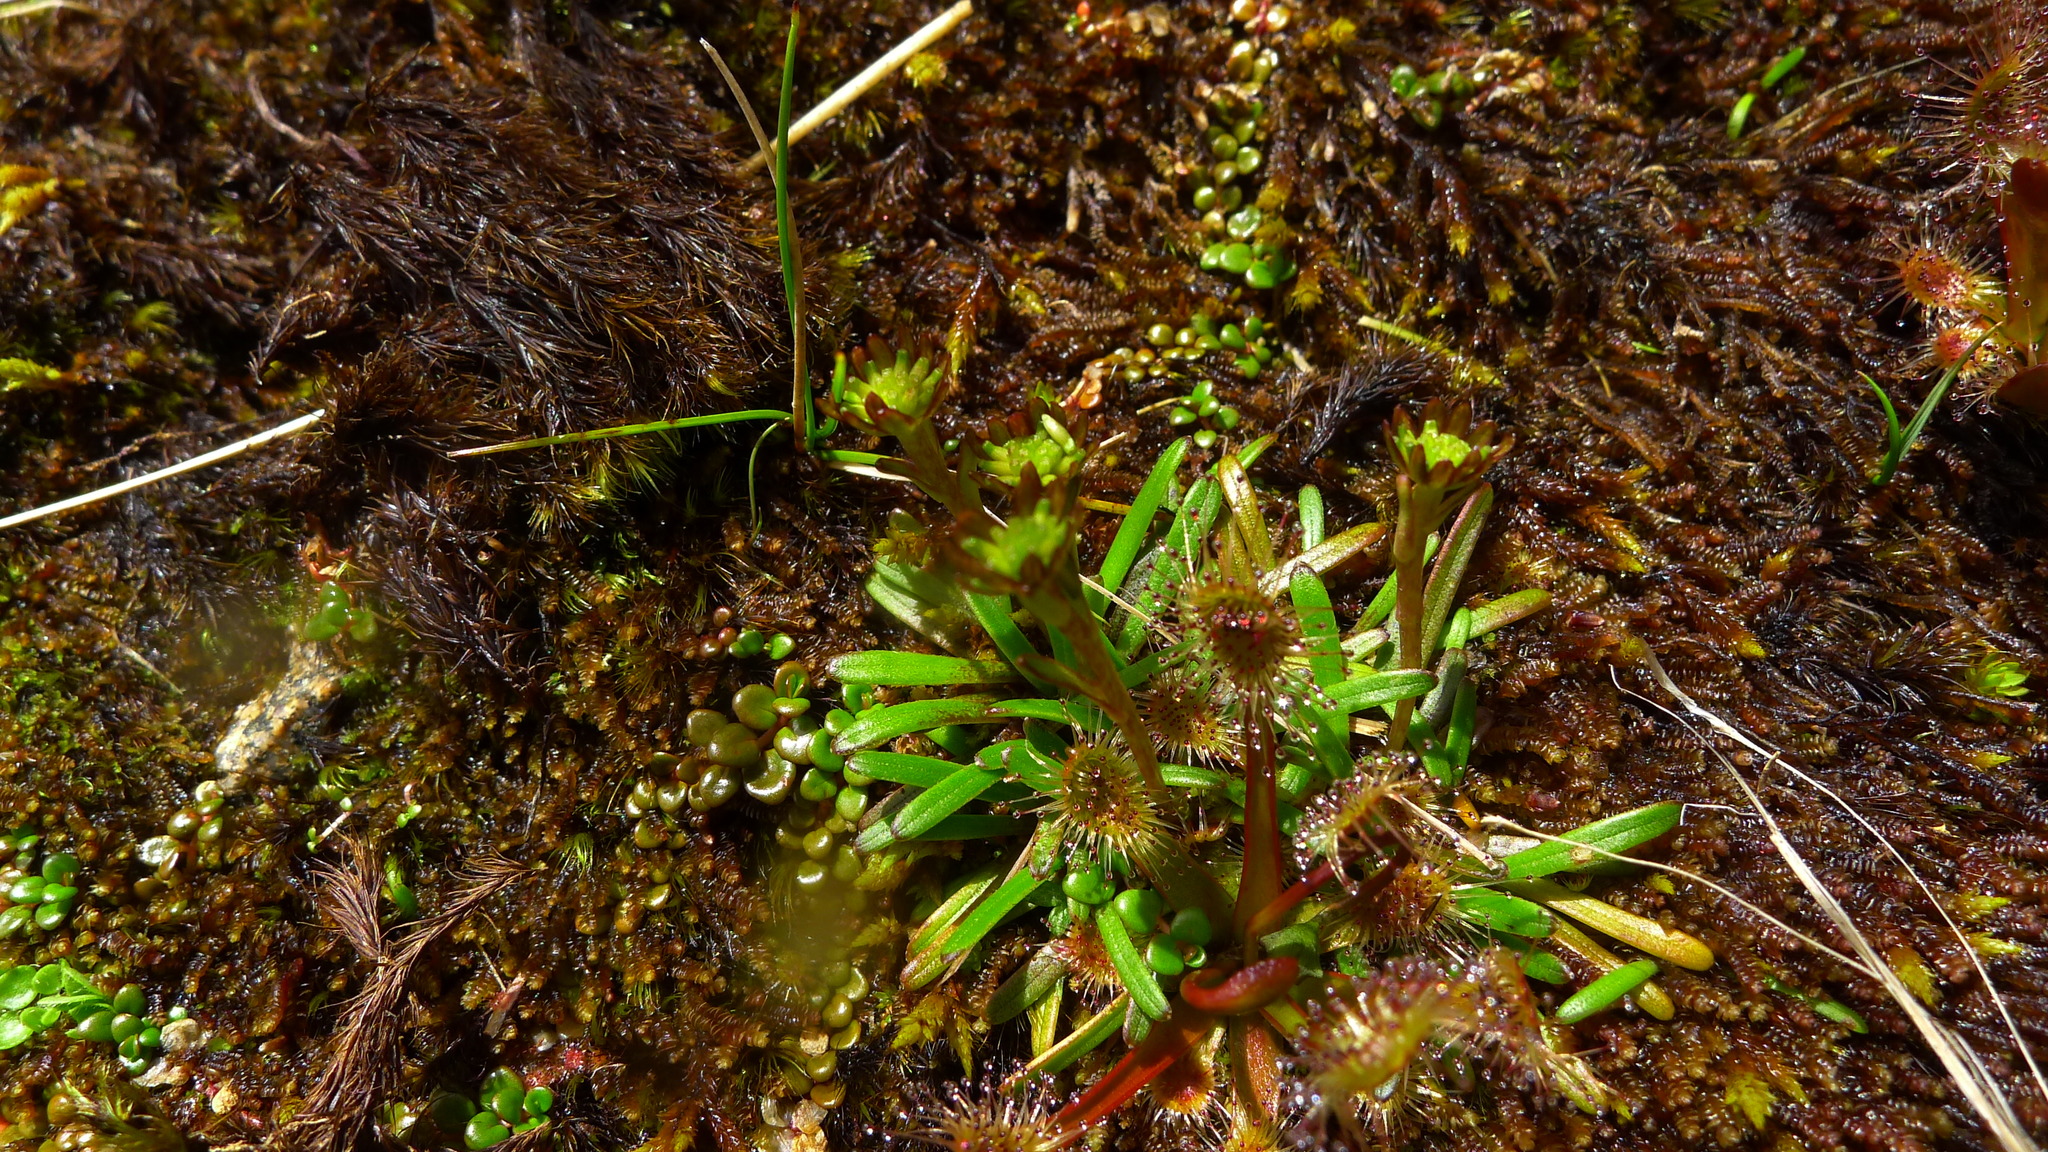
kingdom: Plantae
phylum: Tracheophyta
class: Magnoliopsida
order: Asterales
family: Asteraceae
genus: Abrotanella
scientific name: Abrotanella linearis
